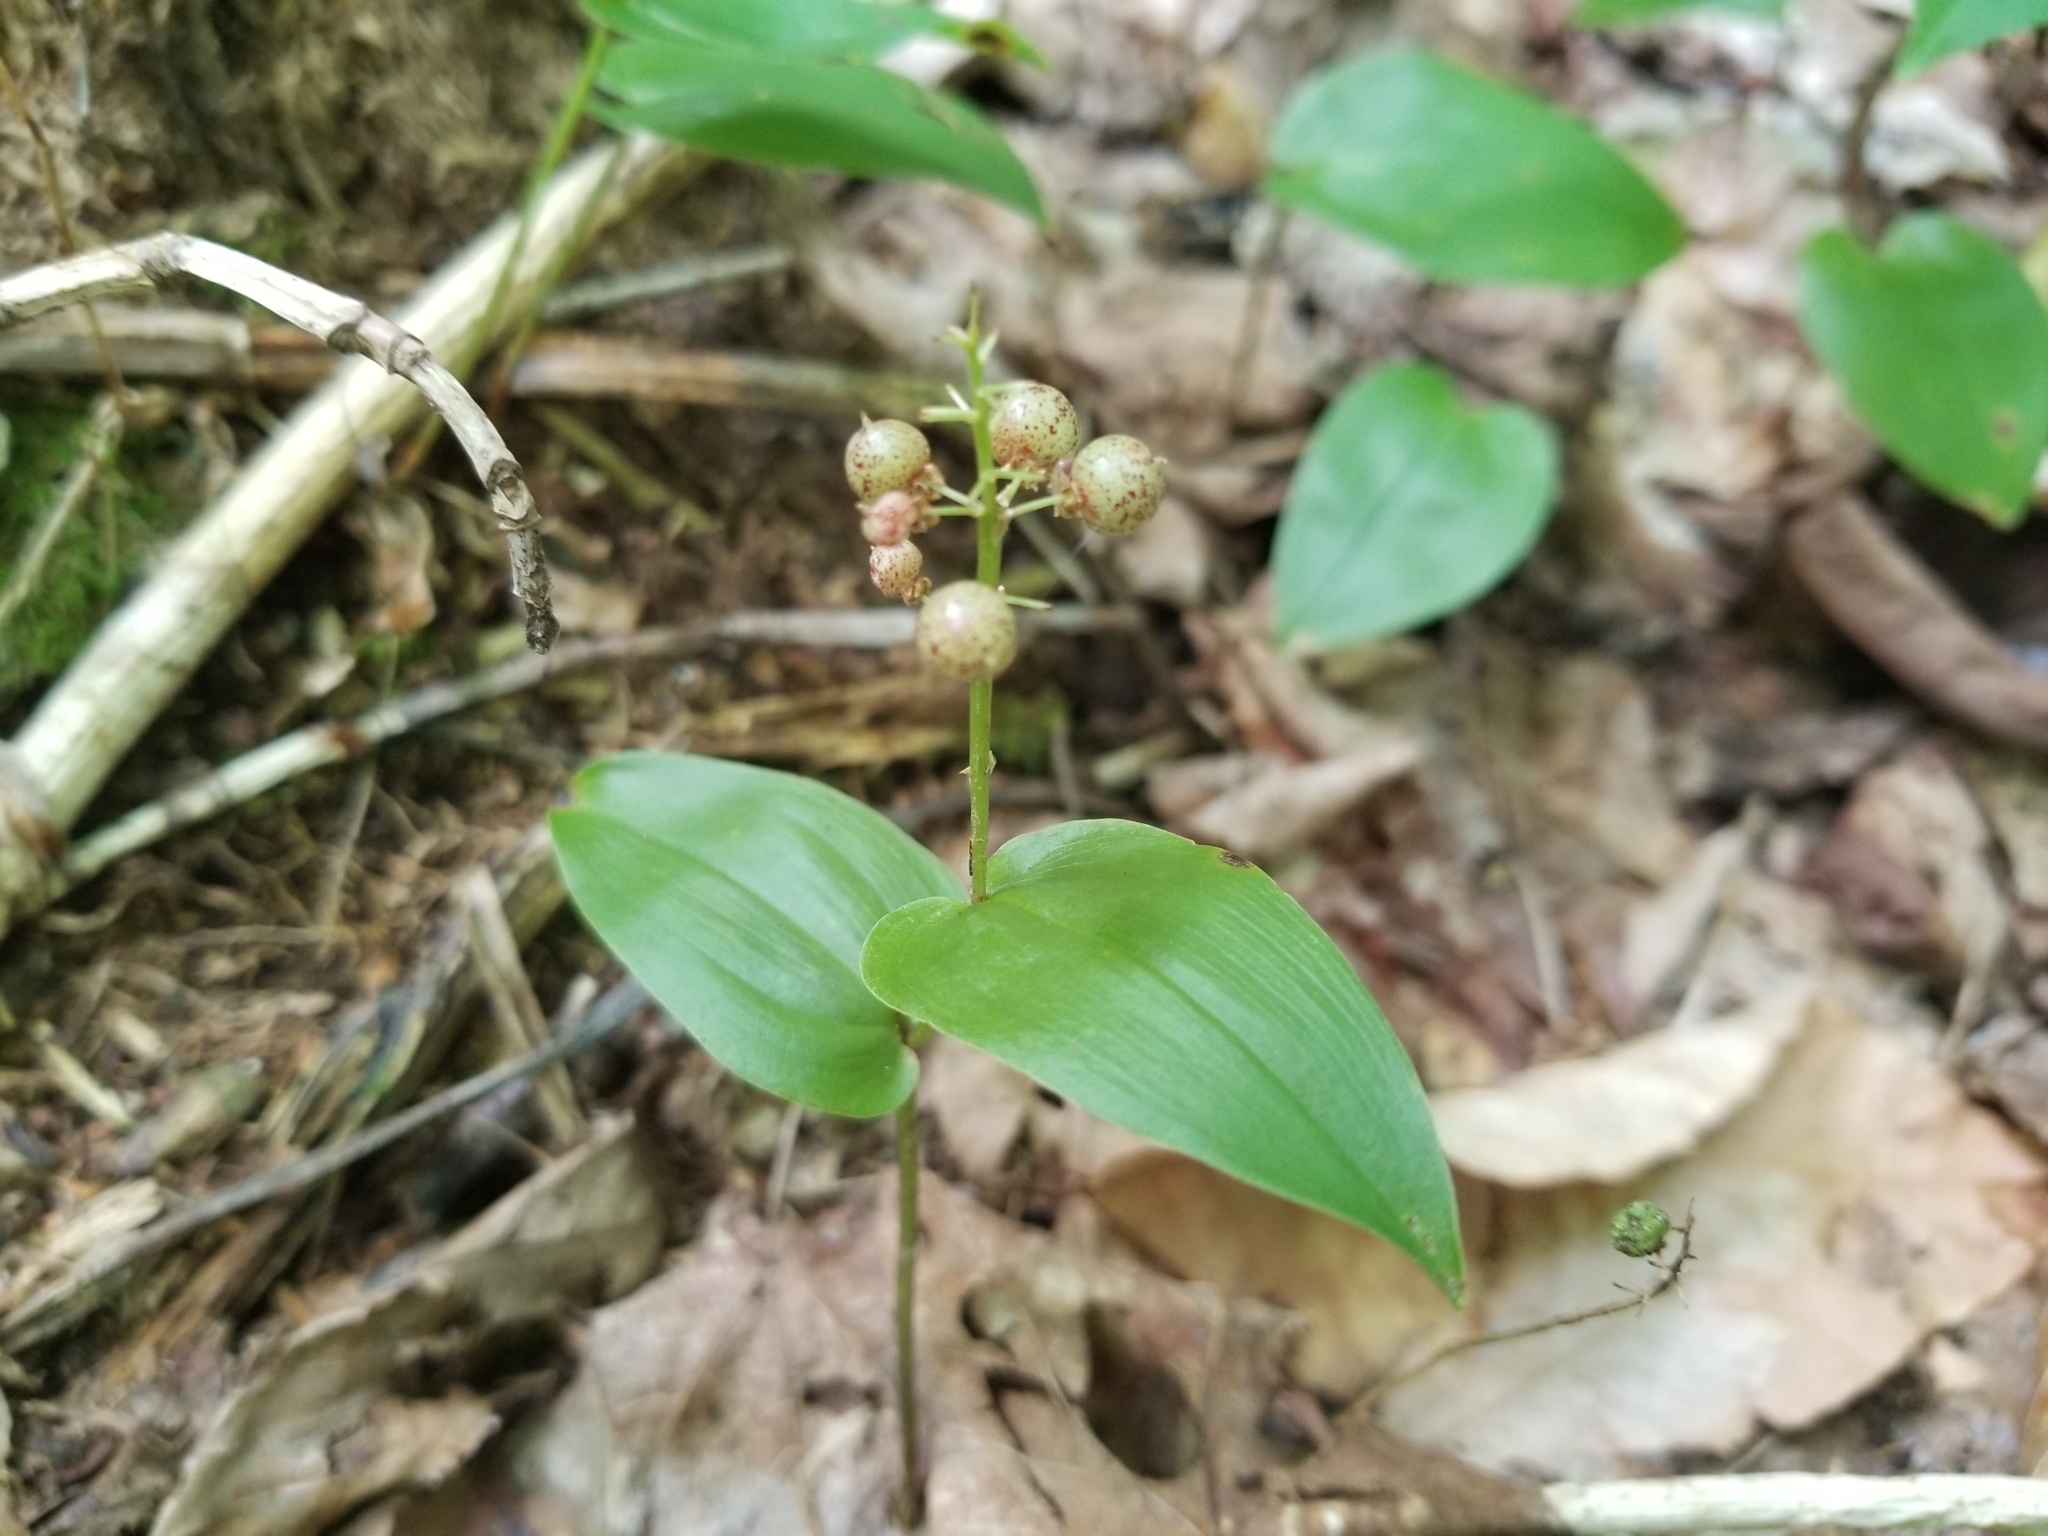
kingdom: Plantae
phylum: Tracheophyta
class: Liliopsida
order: Asparagales
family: Asparagaceae
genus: Maianthemum
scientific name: Maianthemum canadense
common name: False lily-of-the-valley
